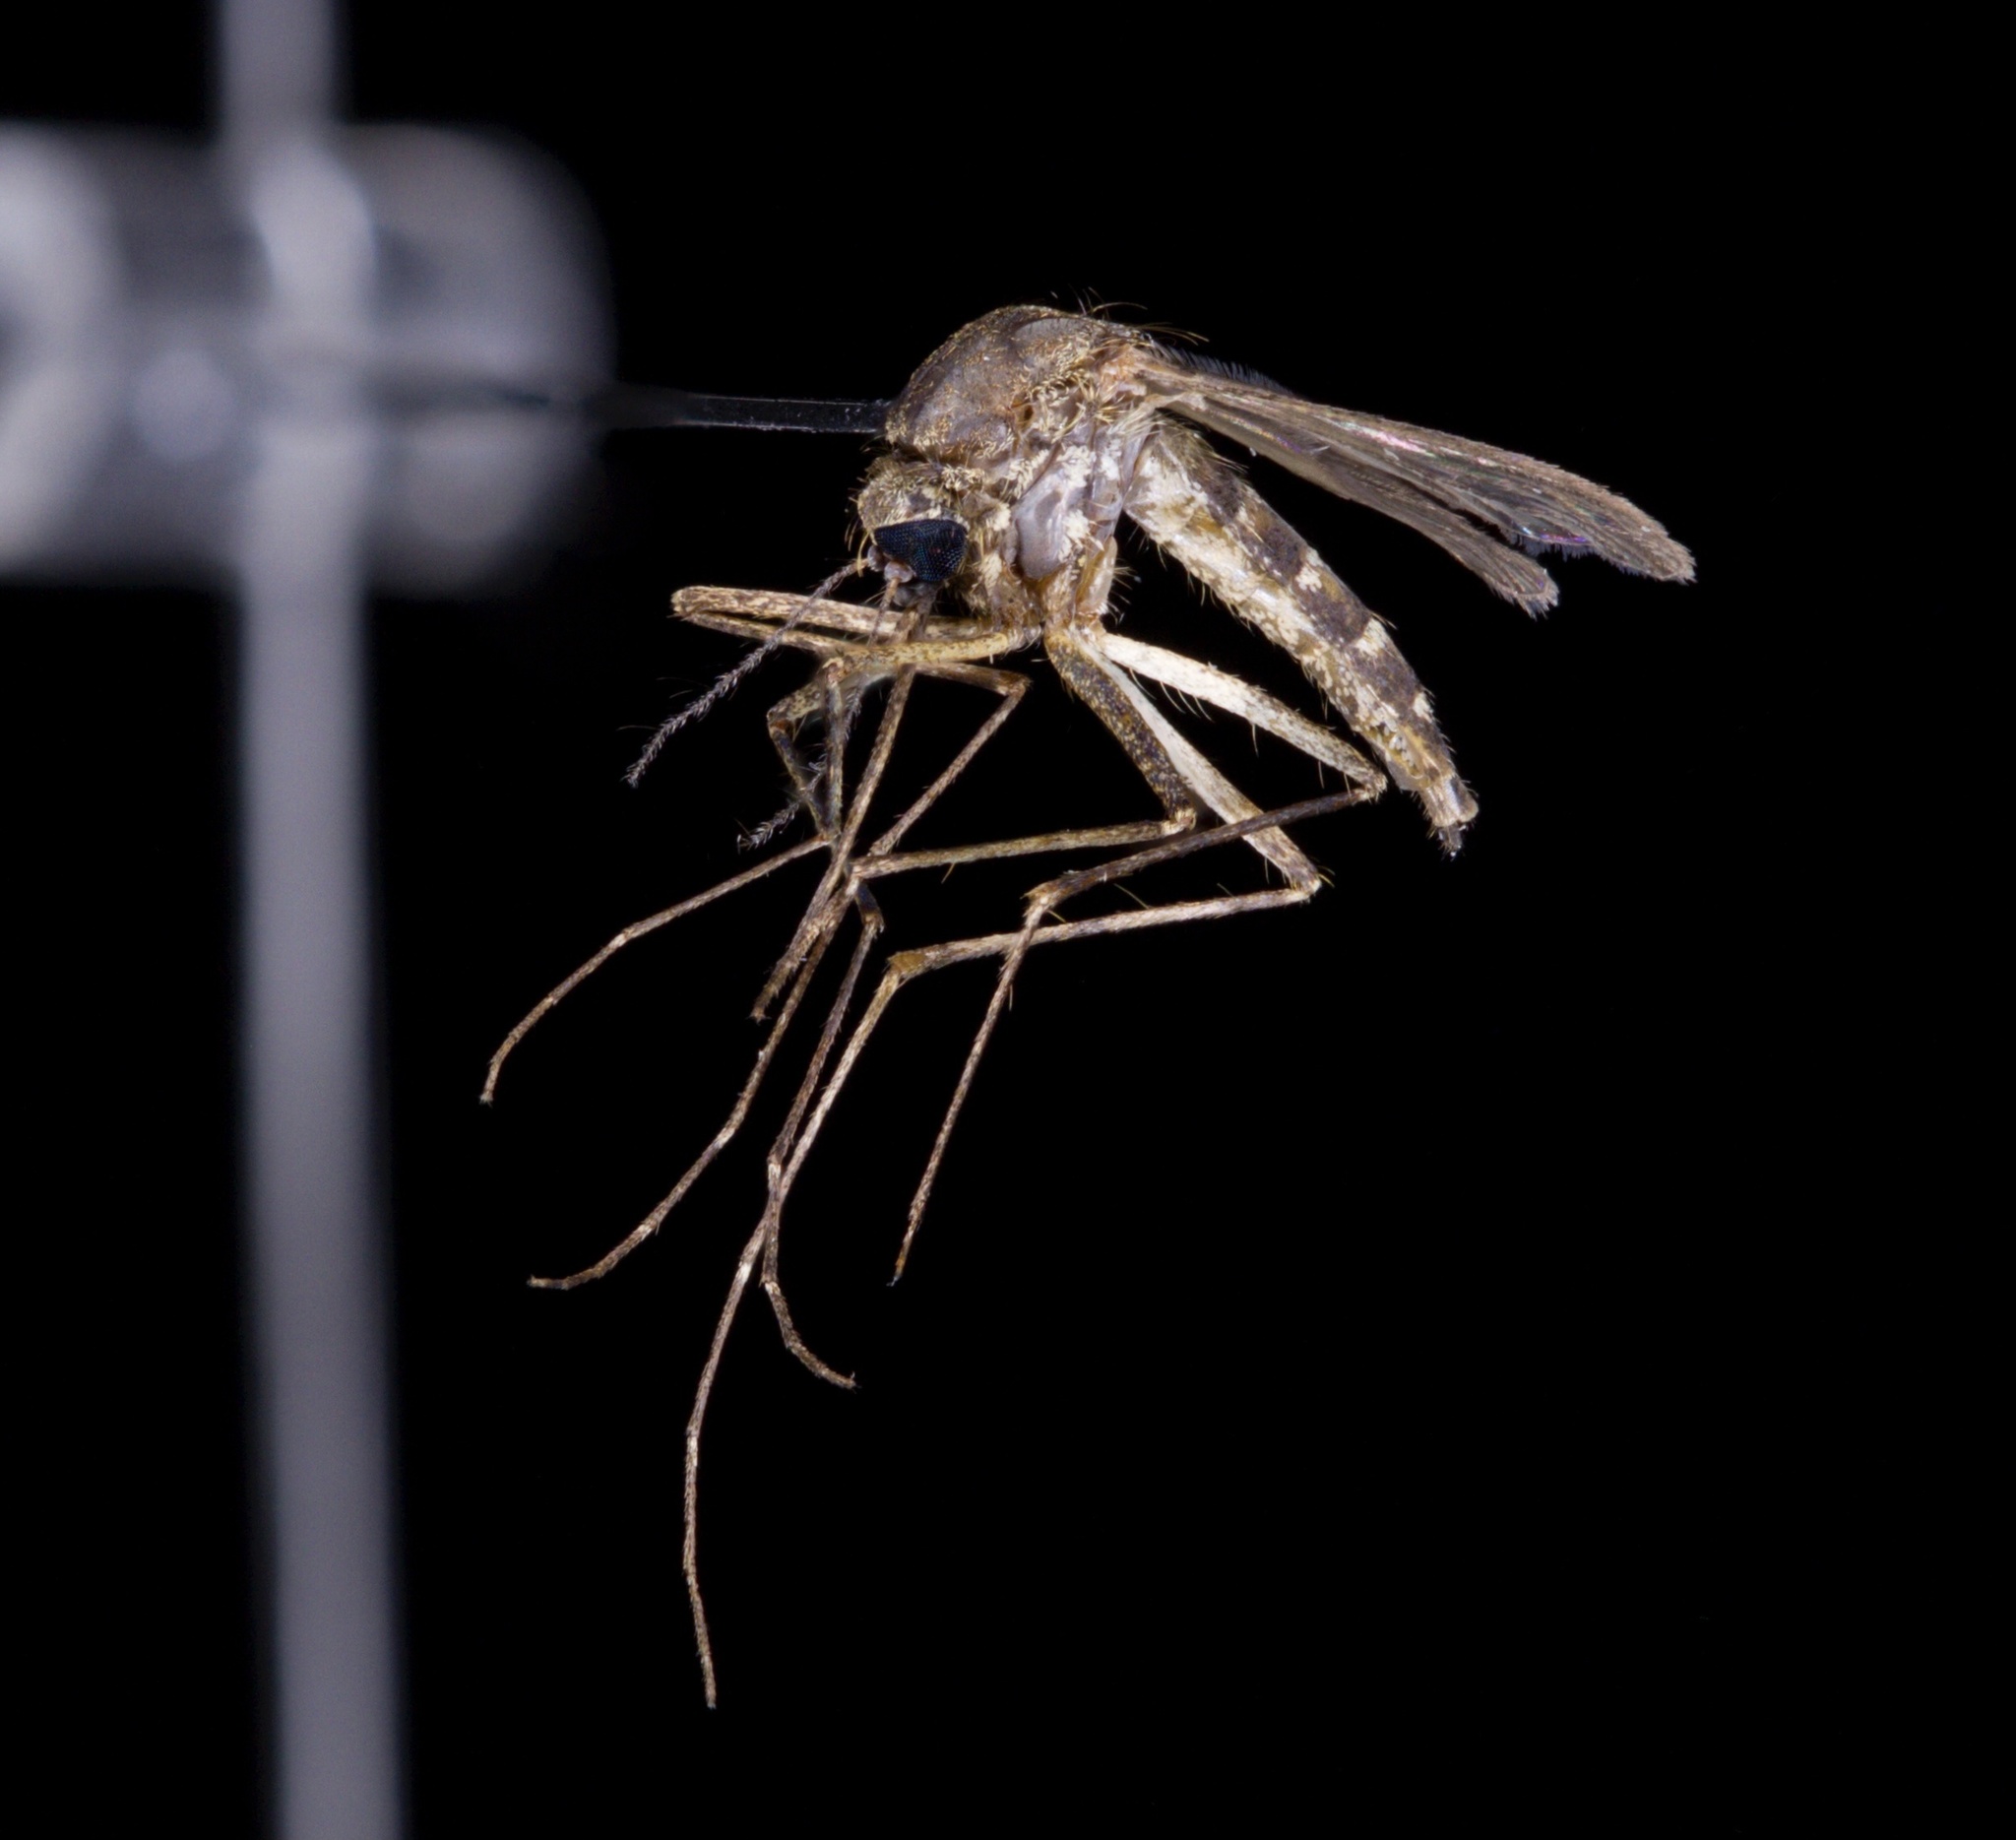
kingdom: Animalia
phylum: Arthropoda
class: Insecta
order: Diptera
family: Culicidae
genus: Aedes
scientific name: Aedes cinereus
